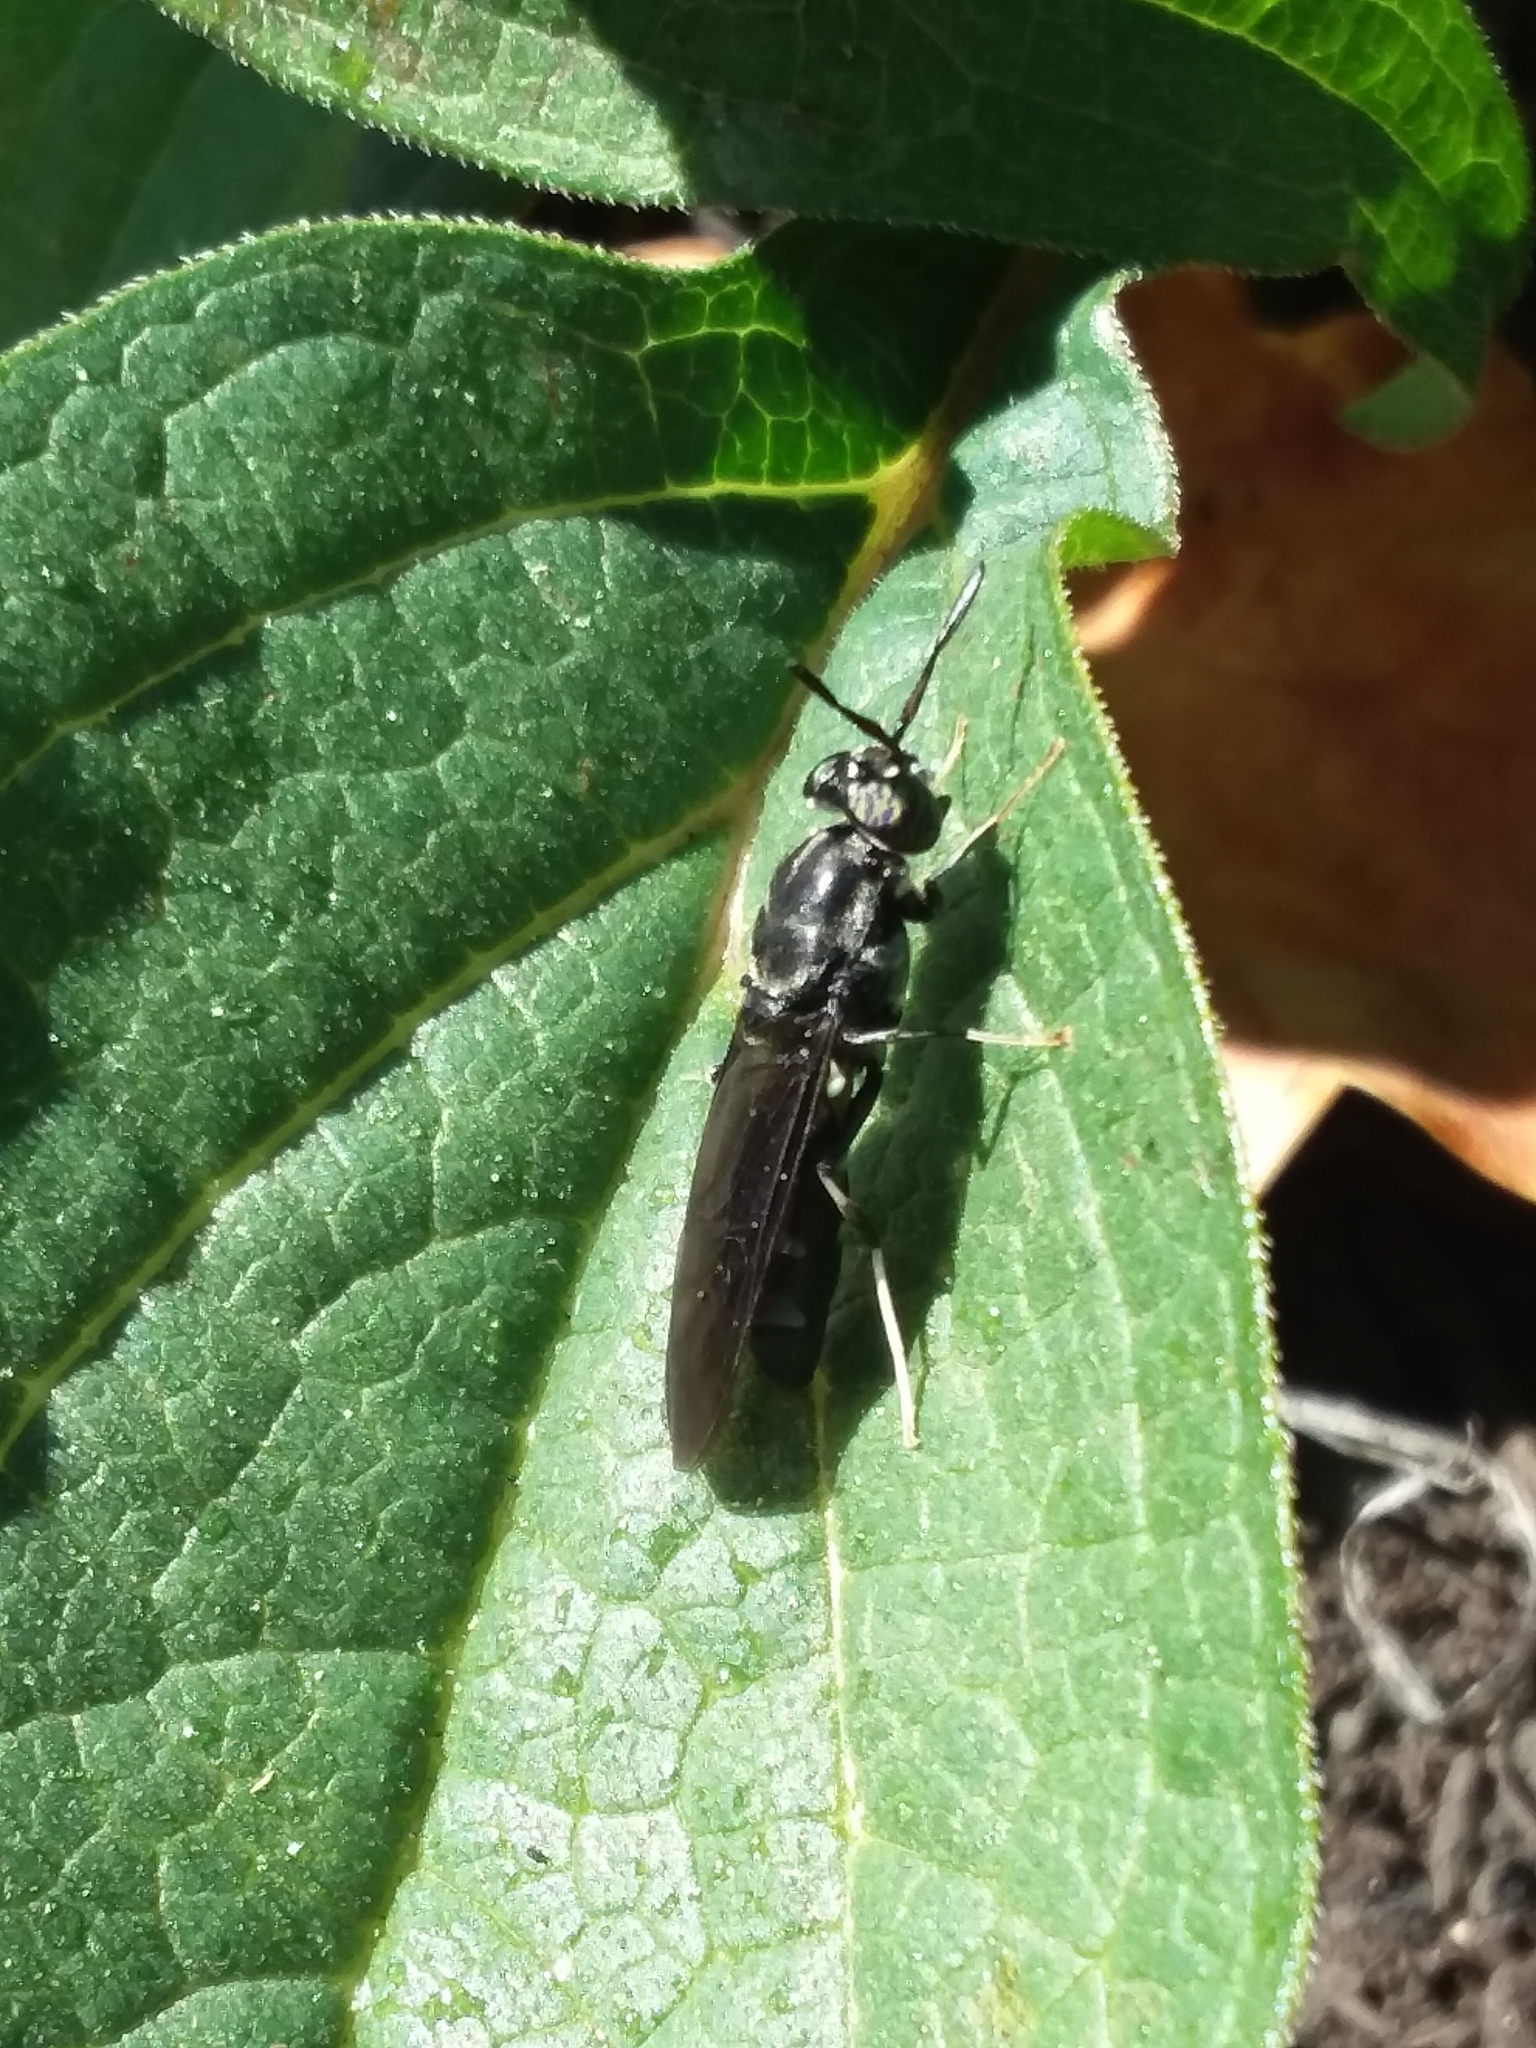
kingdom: Animalia
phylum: Arthropoda
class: Insecta
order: Diptera
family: Stratiomyidae
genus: Hermetia
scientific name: Hermetia illucens
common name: Black soldier fly
